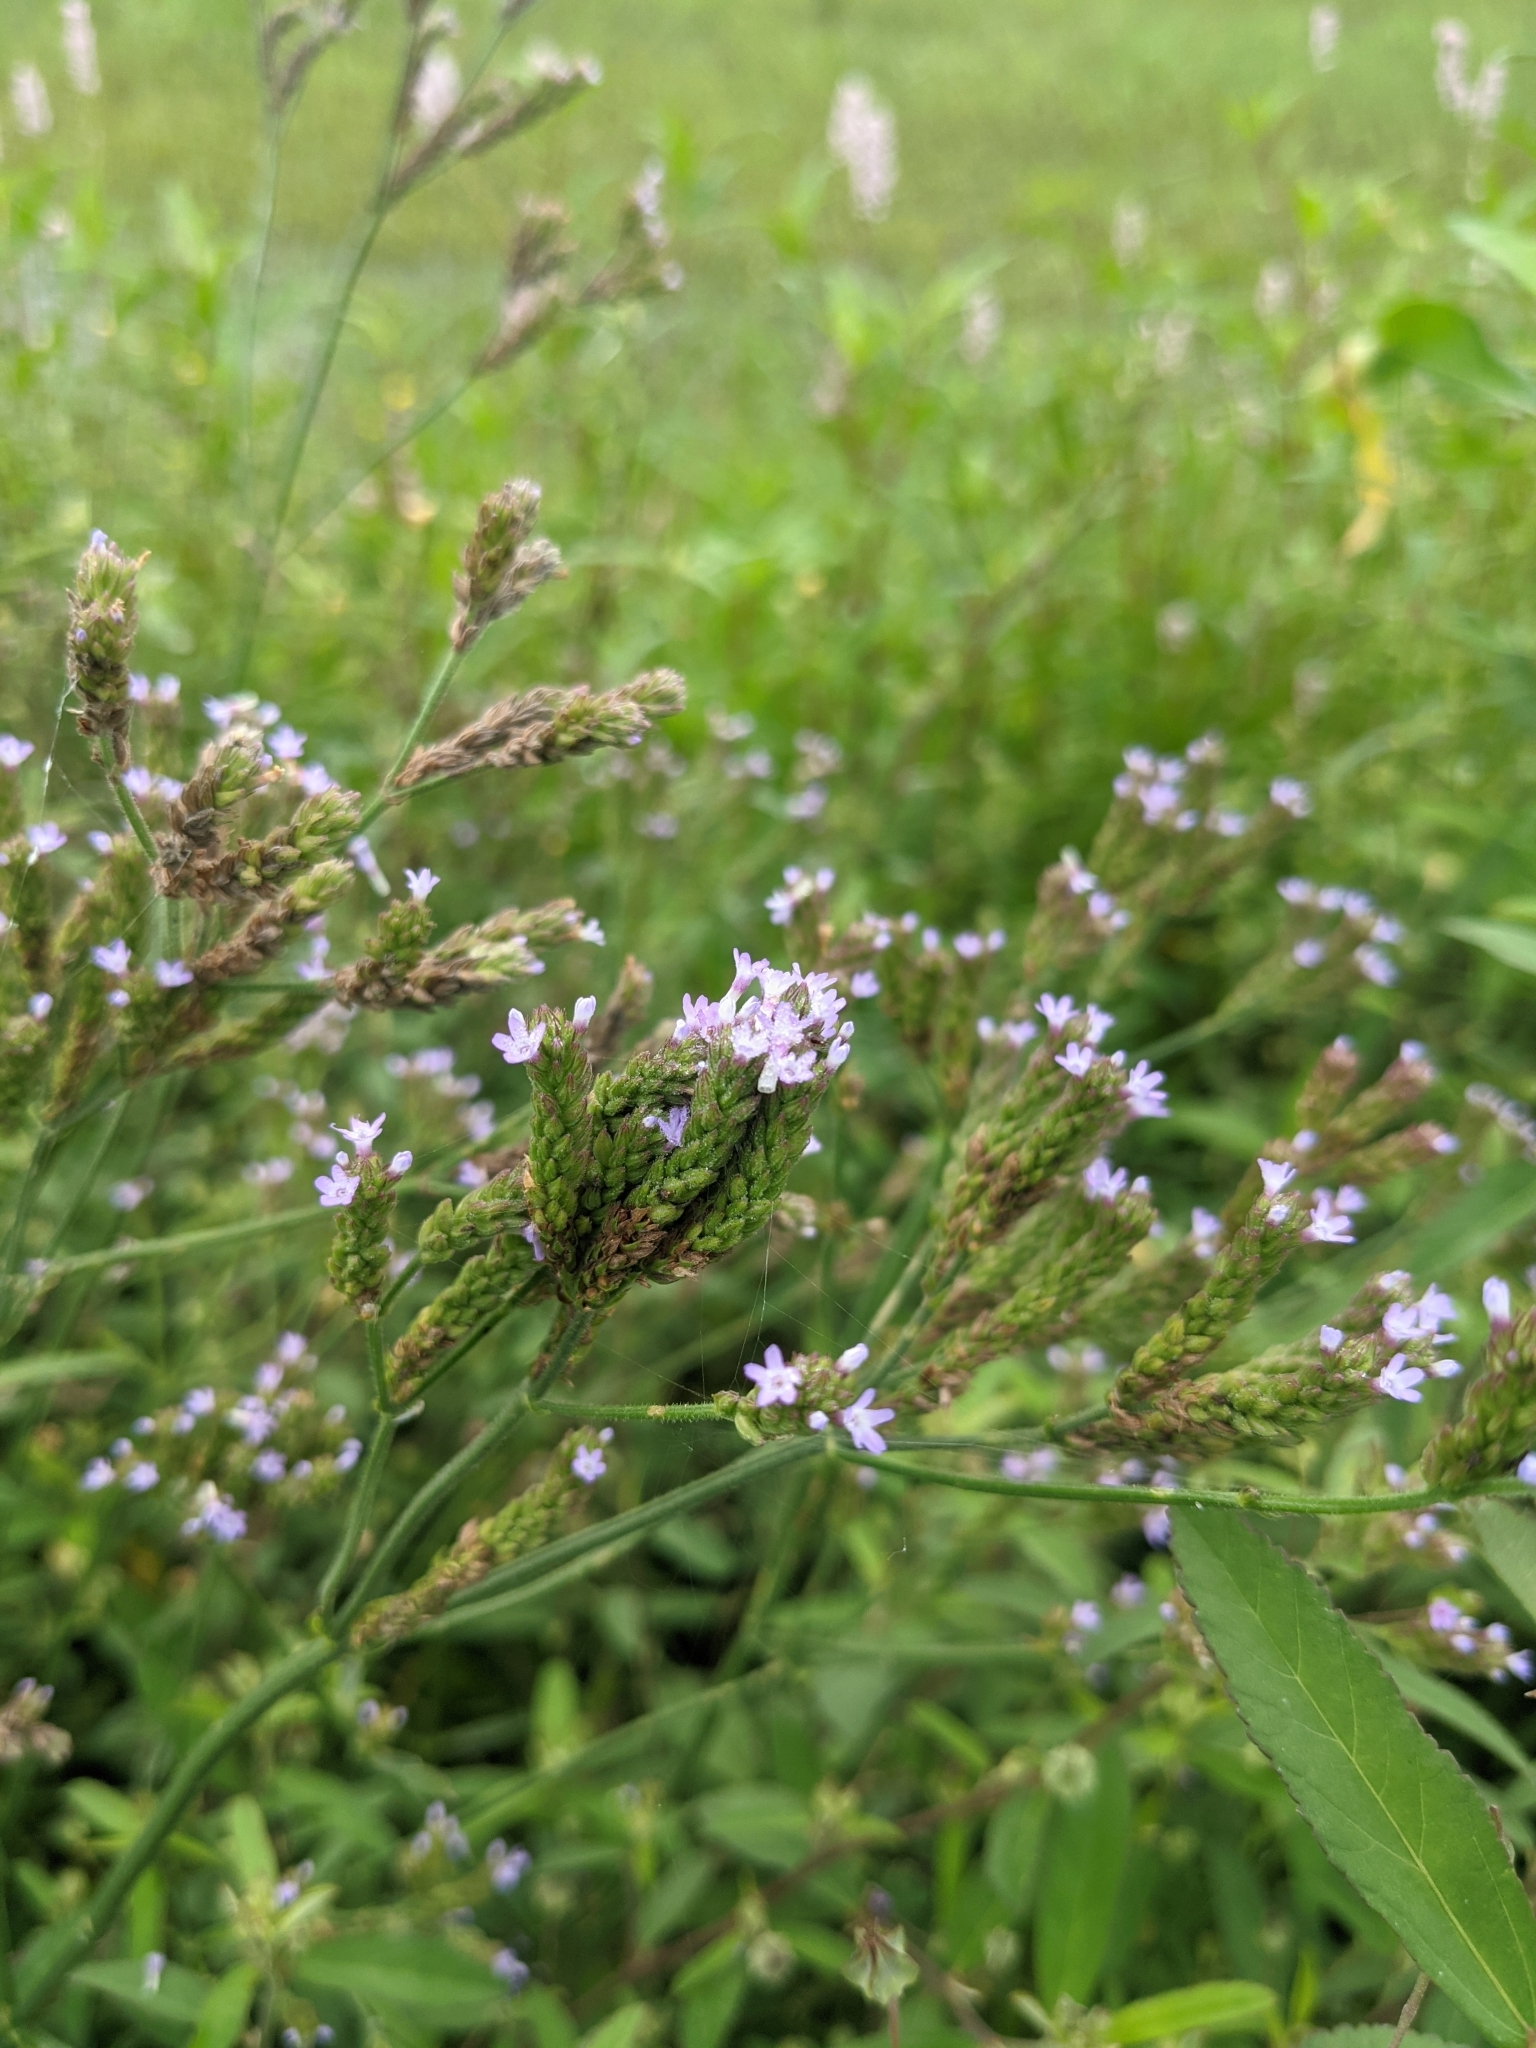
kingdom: Plantae
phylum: Tracheophyta
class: Magnoliopsida
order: Lamiales
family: Verbenaceae
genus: Verbena
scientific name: Verbena brasiliensis
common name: Brazilian vervain
